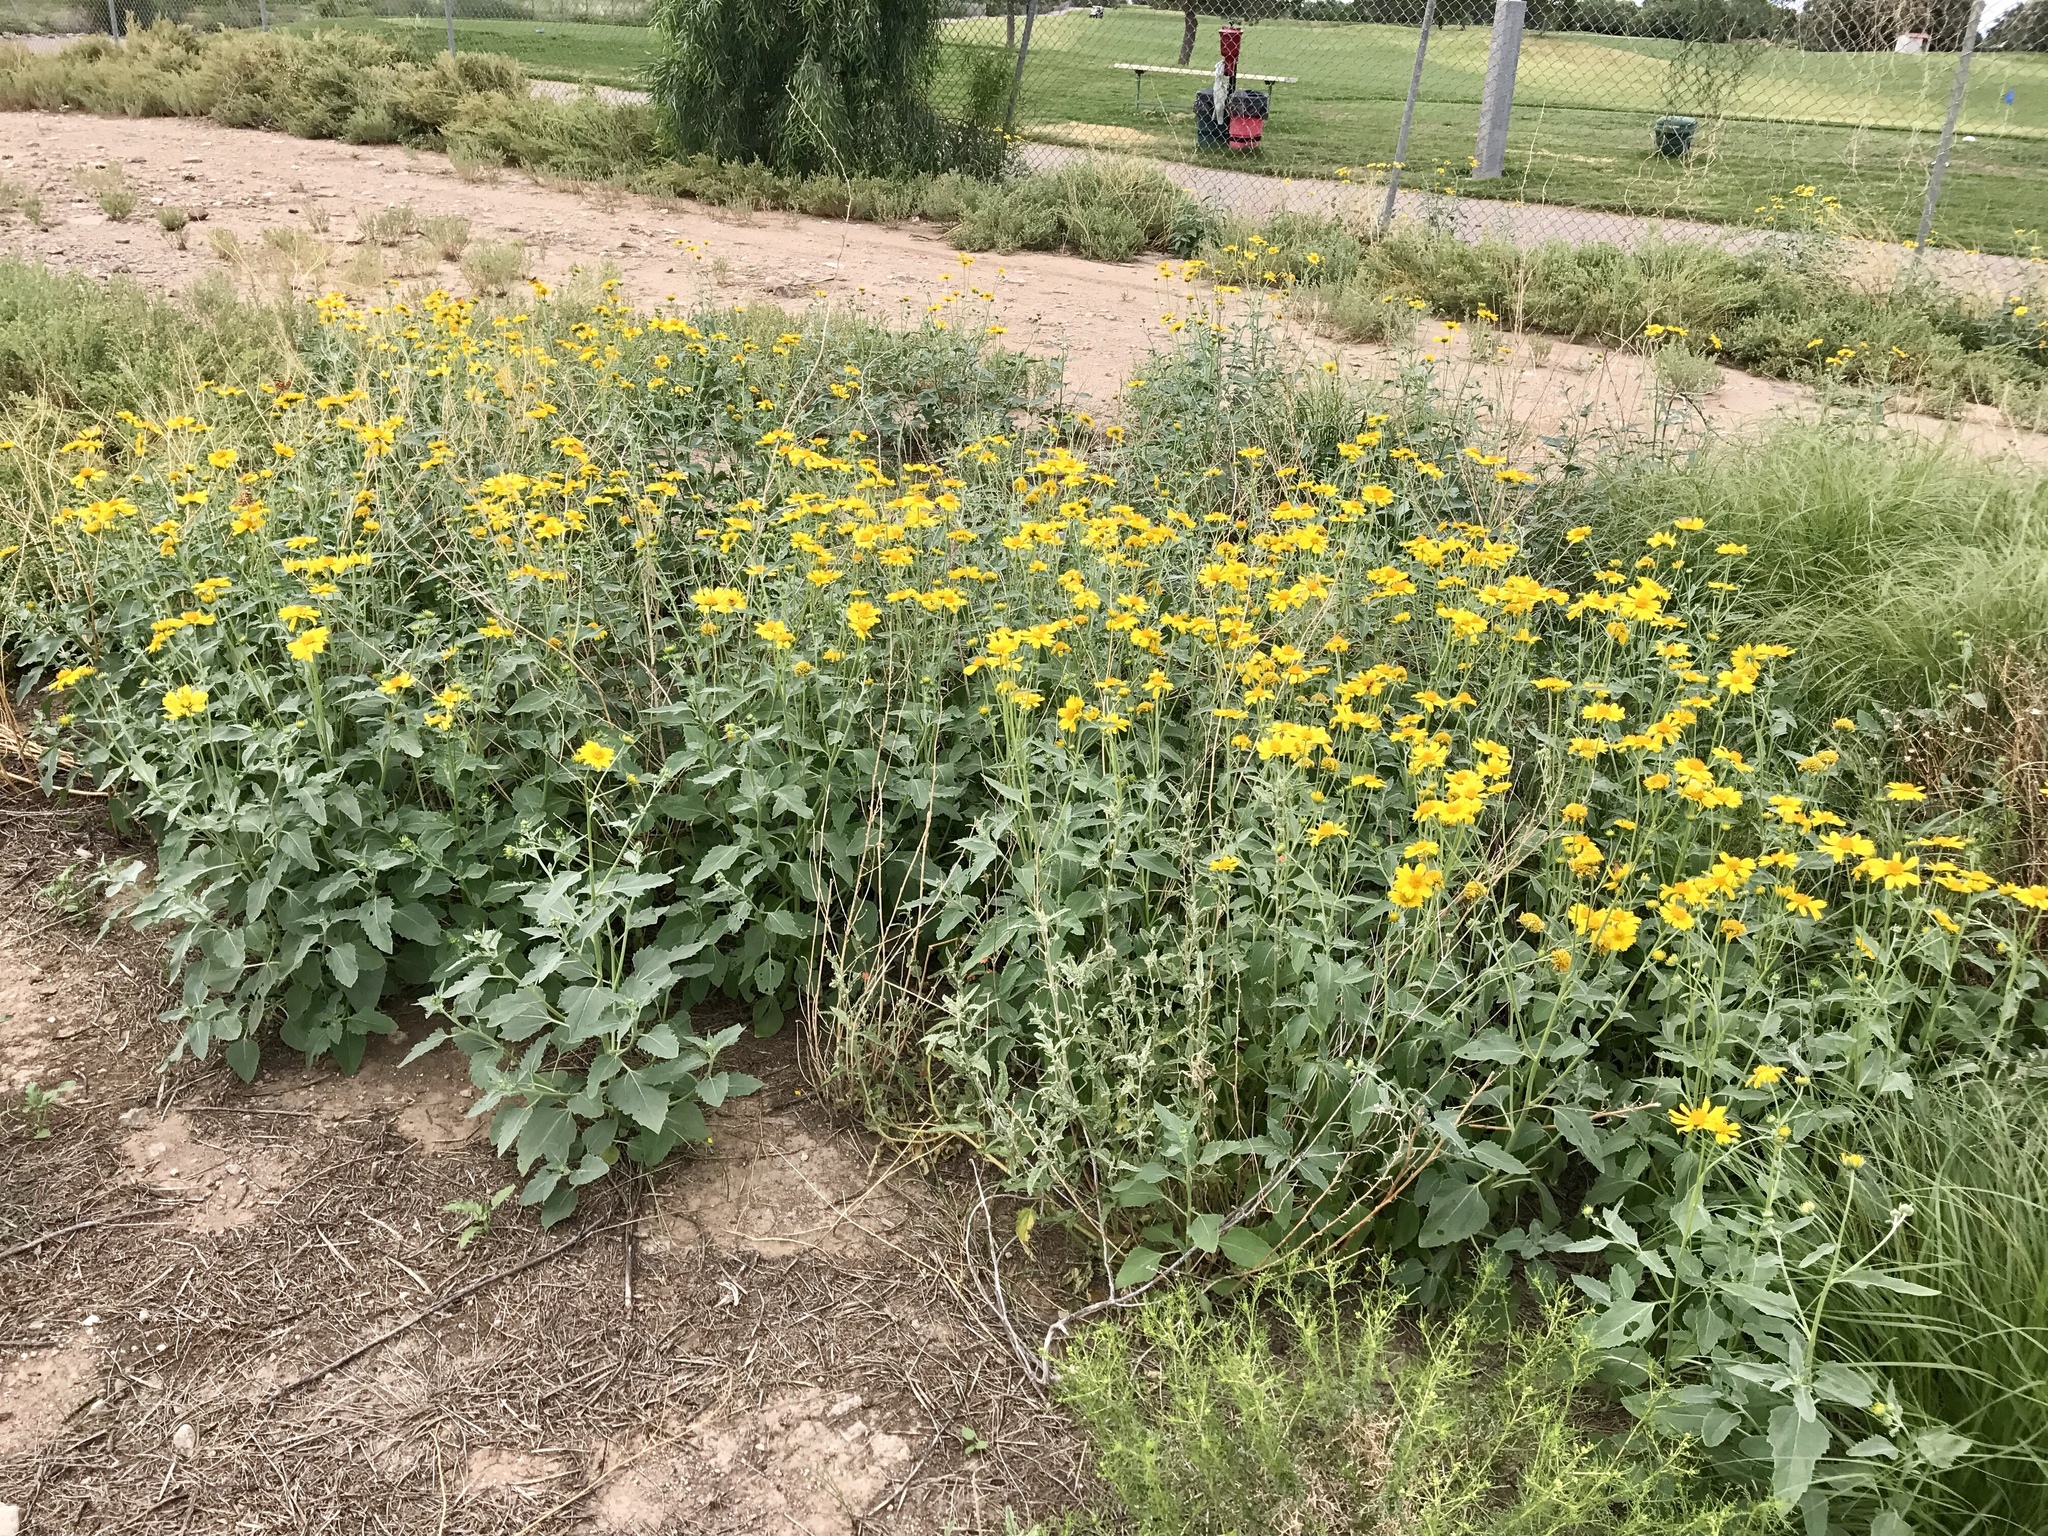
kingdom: Plantae
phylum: Tracheophyta
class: Magnoliopsida
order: Asterales
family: Asteraceae
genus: Verbesina
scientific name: Verbesina encelioides
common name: Golden crownbeard
